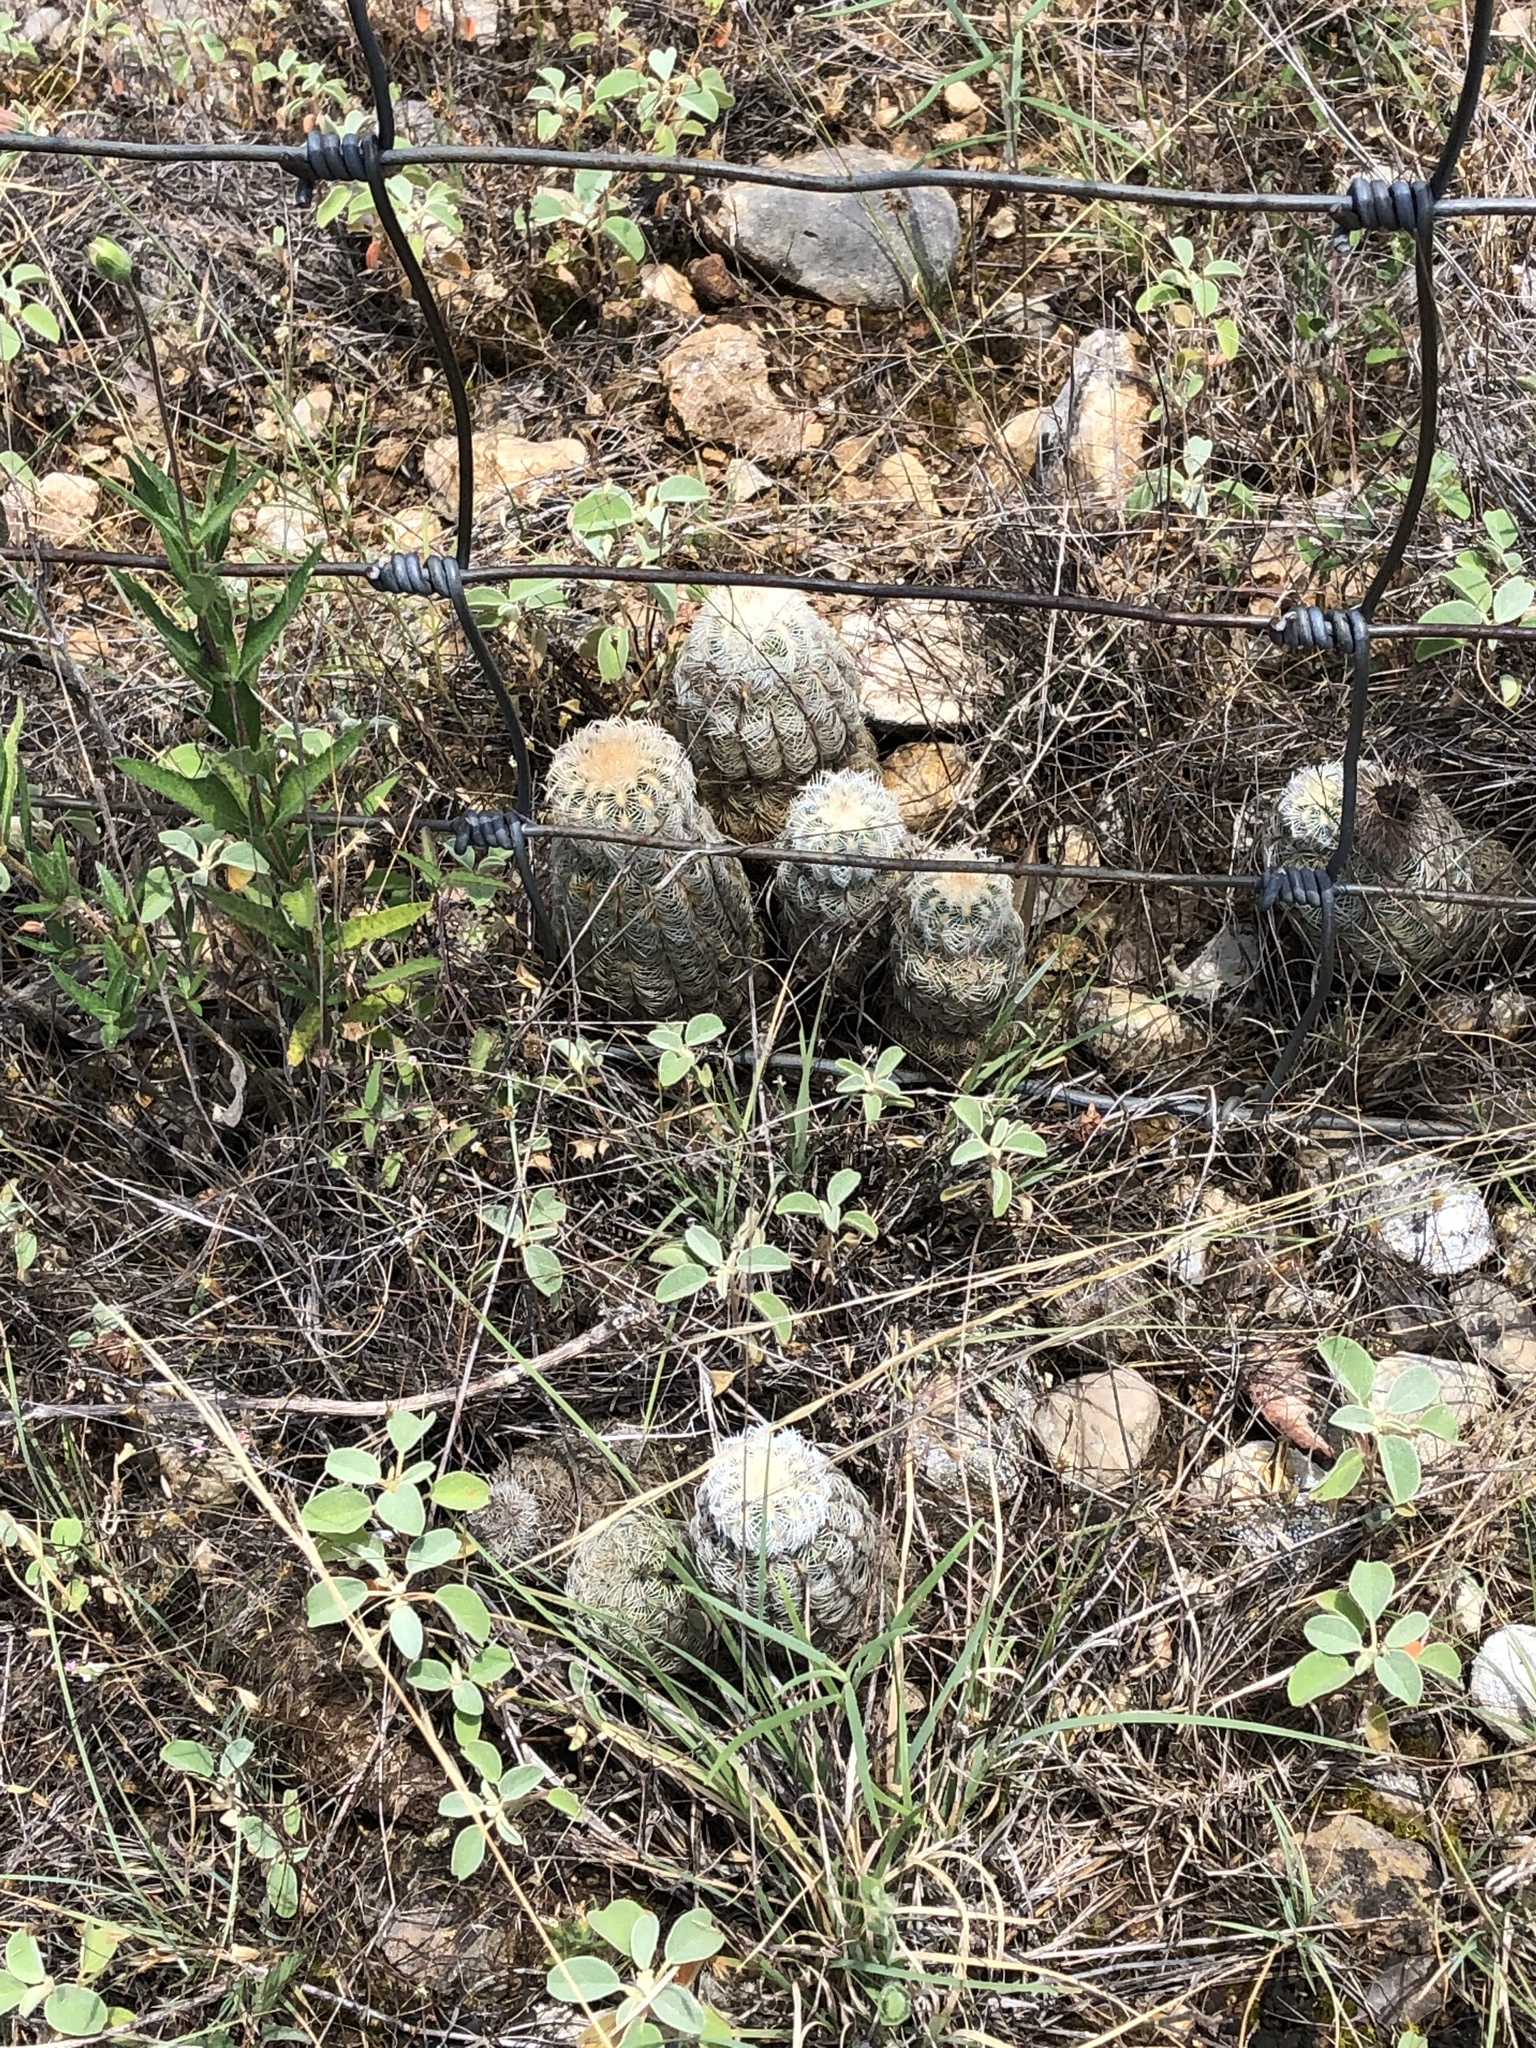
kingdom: Plantae
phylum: Tracheophyta
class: Magnoliopsida
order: Caryophyllales
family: Cactaceae
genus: Echinocereus
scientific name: Echinocereus reichenbachii
